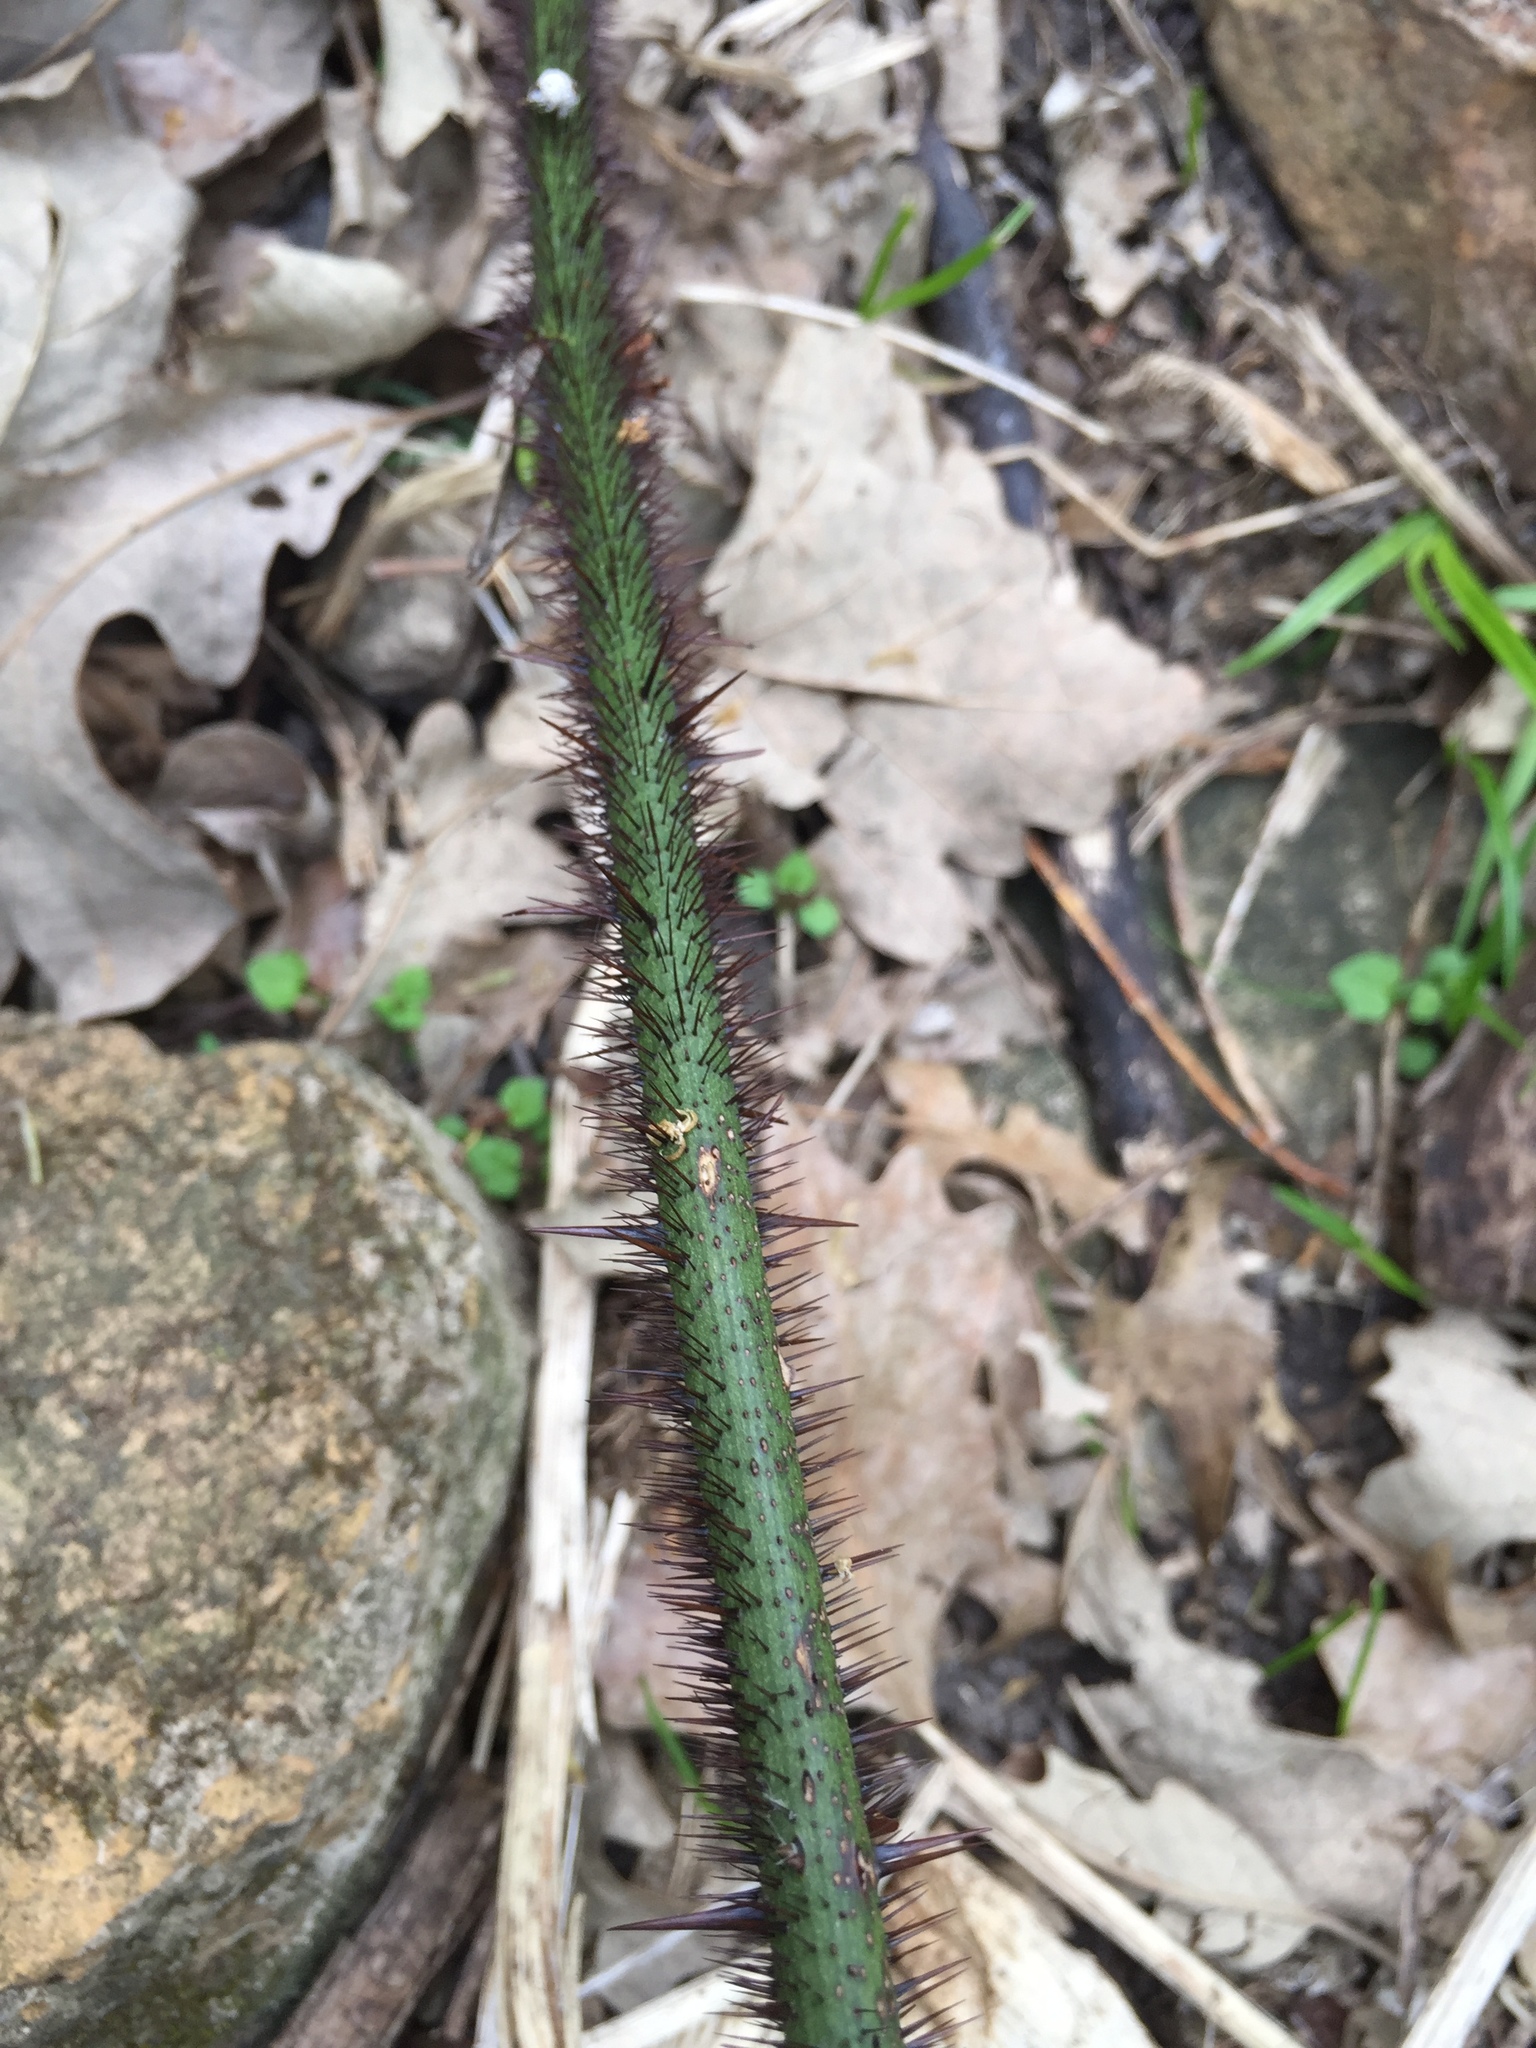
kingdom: Plantae
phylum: Tracheophyta
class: Liliopsida
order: Liliales
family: Smilacaceae
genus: Smilax
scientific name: Smilax tamnoides
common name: Hellfetter
